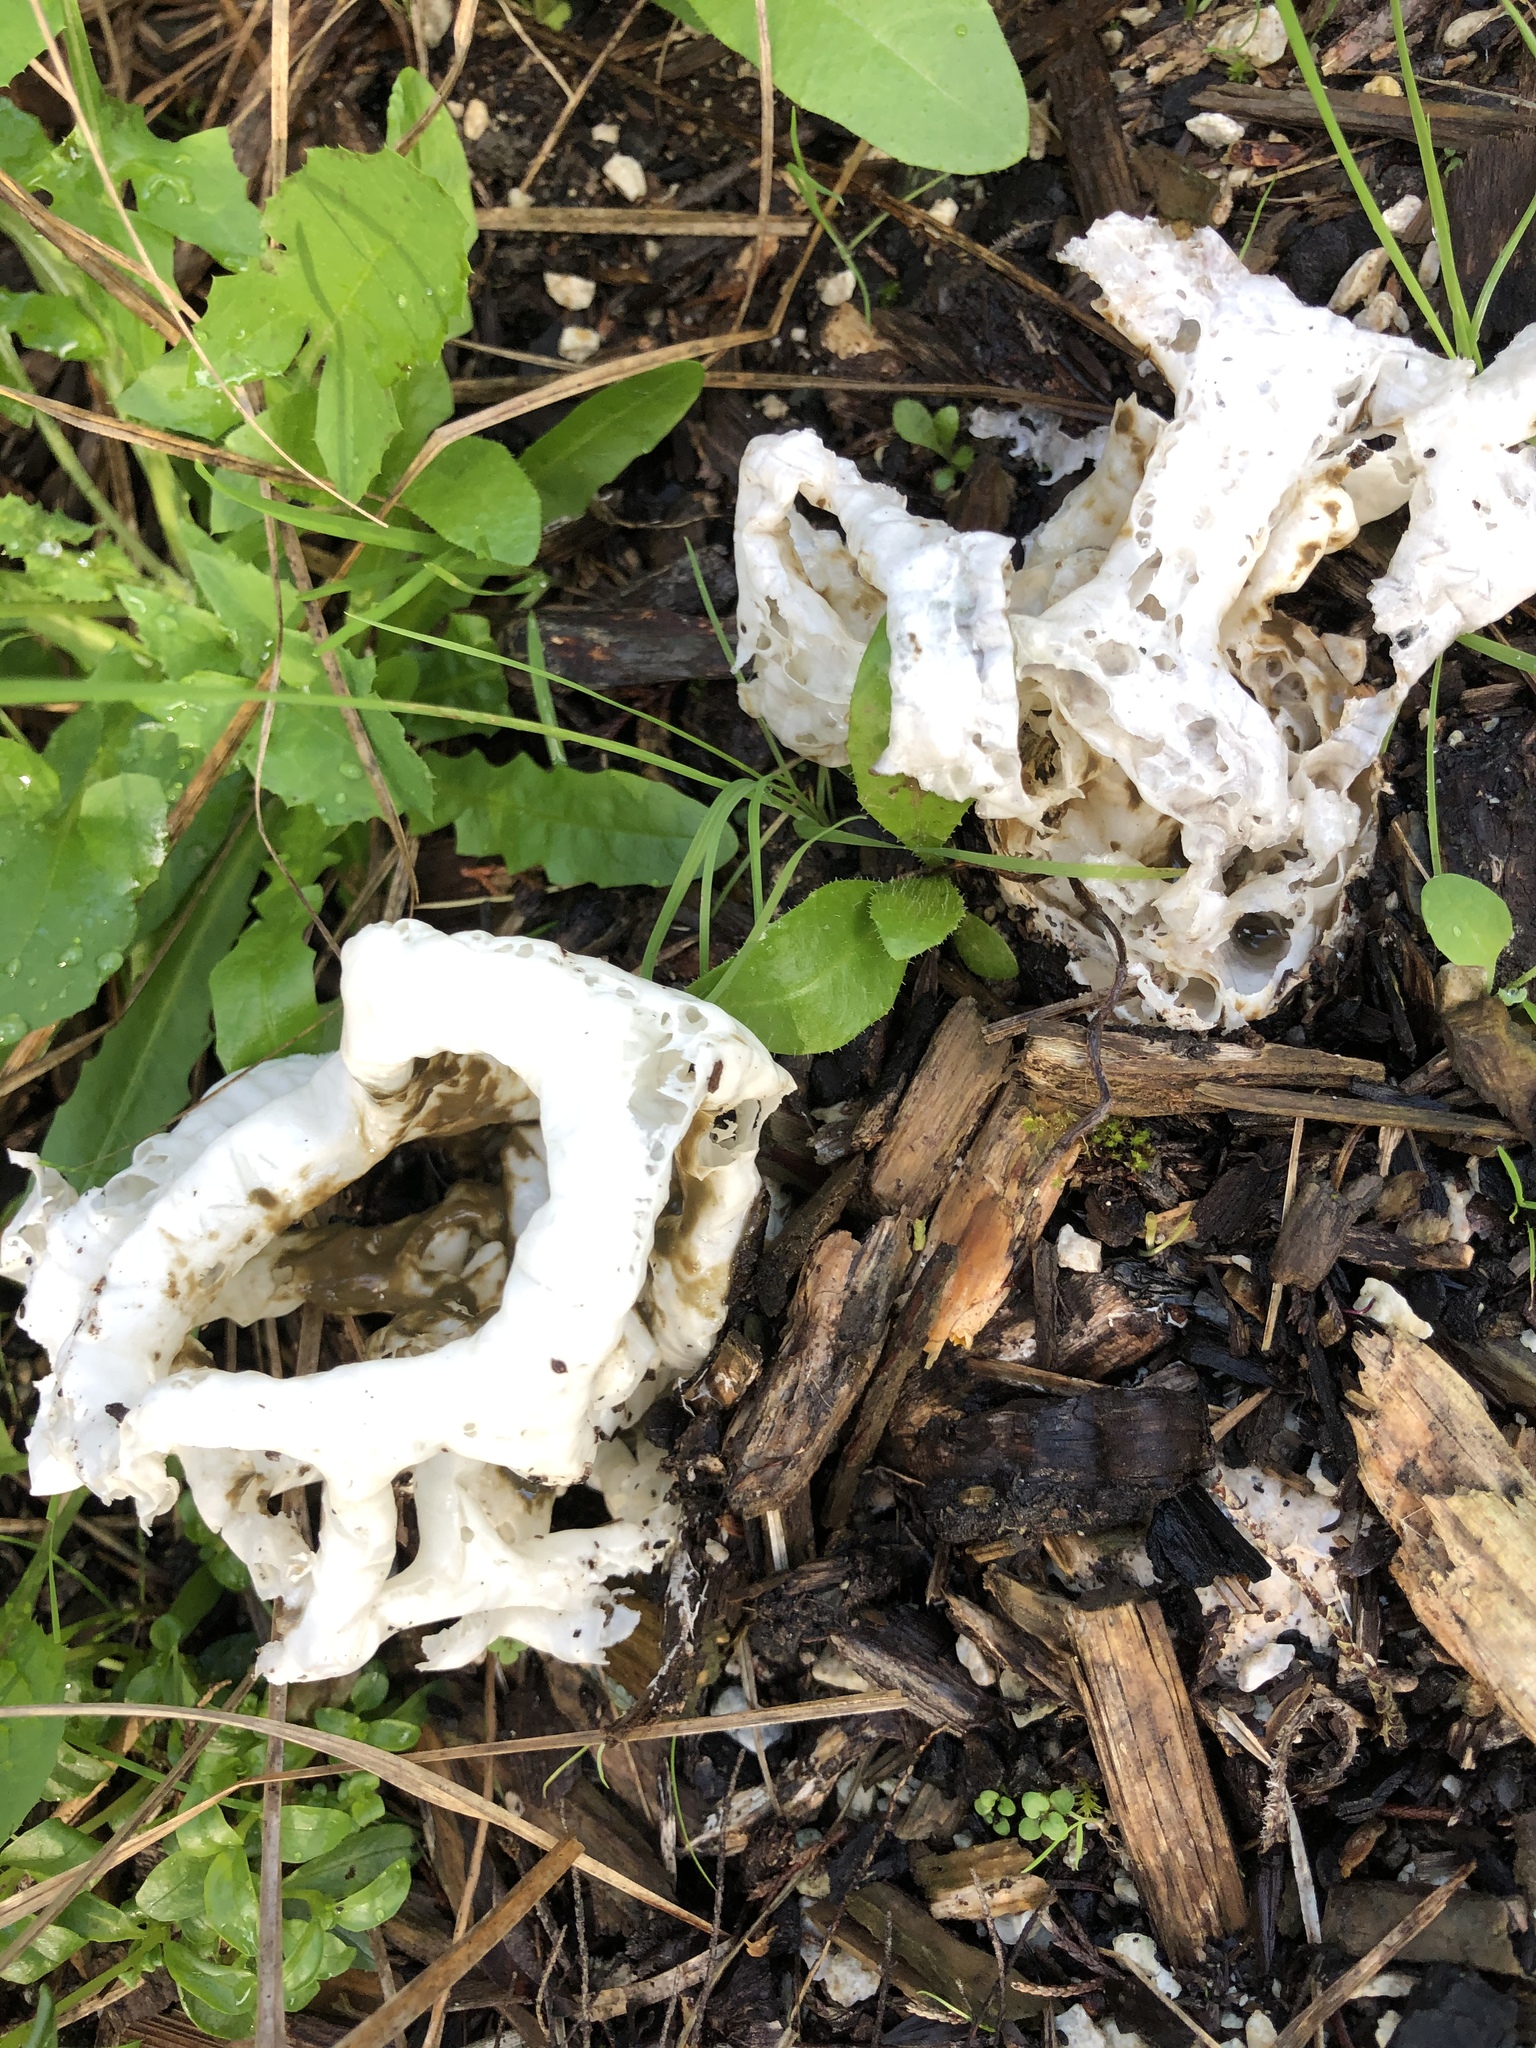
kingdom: Fungi
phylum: Basidiomycota
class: Agaricomycetes
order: Phallales
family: Phallaceae
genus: Ileodictyon
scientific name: Ileodictyon cibarium
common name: Basket fungus
